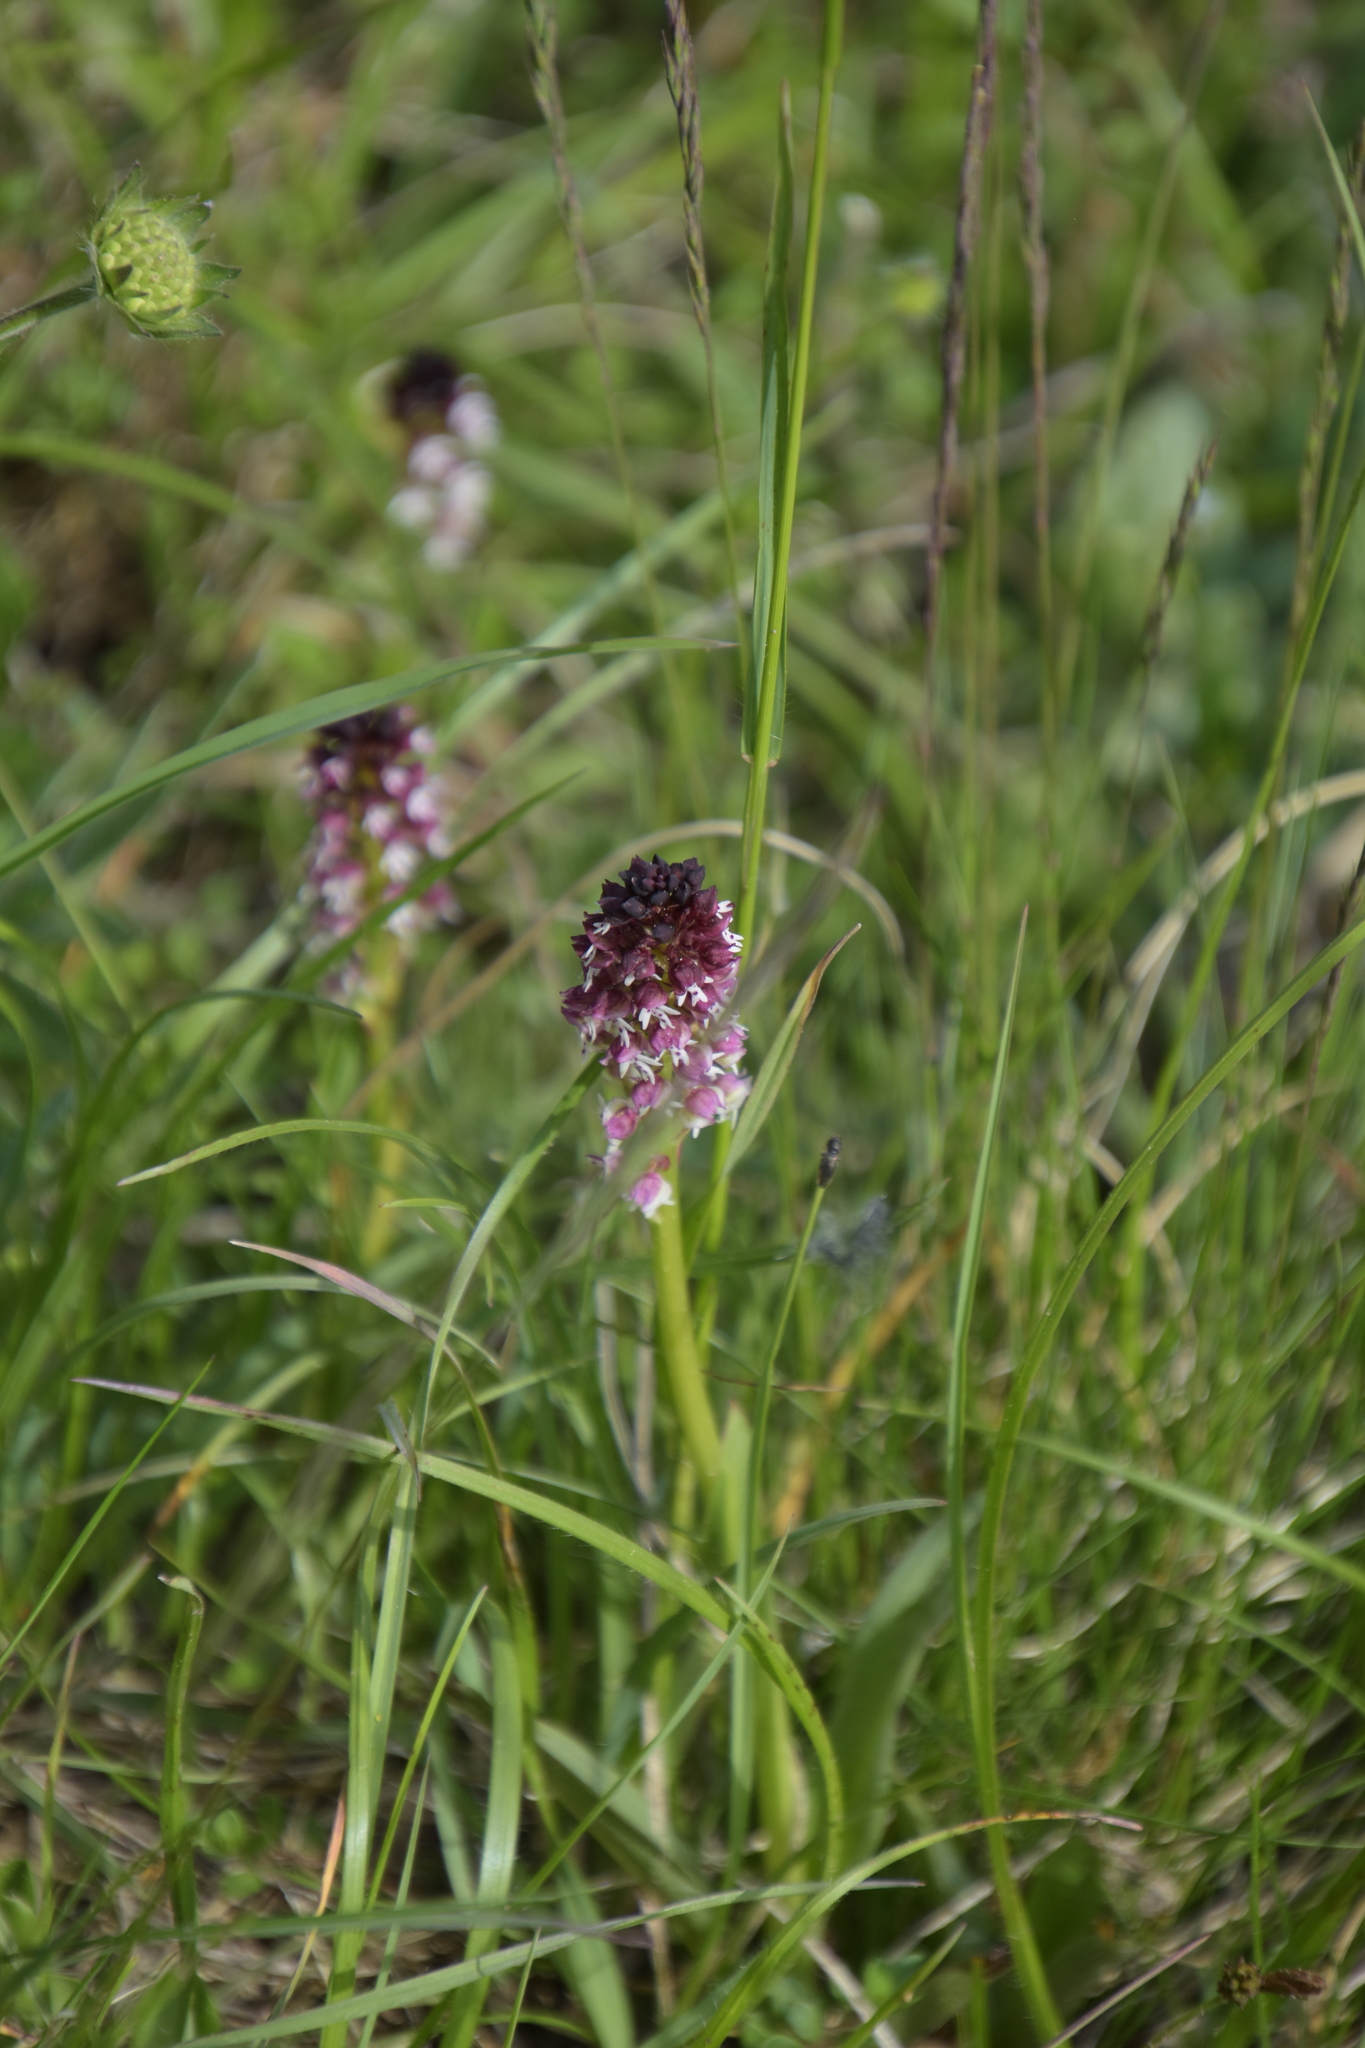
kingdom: Plantae
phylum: Tracheophyta
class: Liliopsida
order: Asparagales
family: Orchidaceae
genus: Neotinea
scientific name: Neotinea ustulata
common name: Burnt orchid
